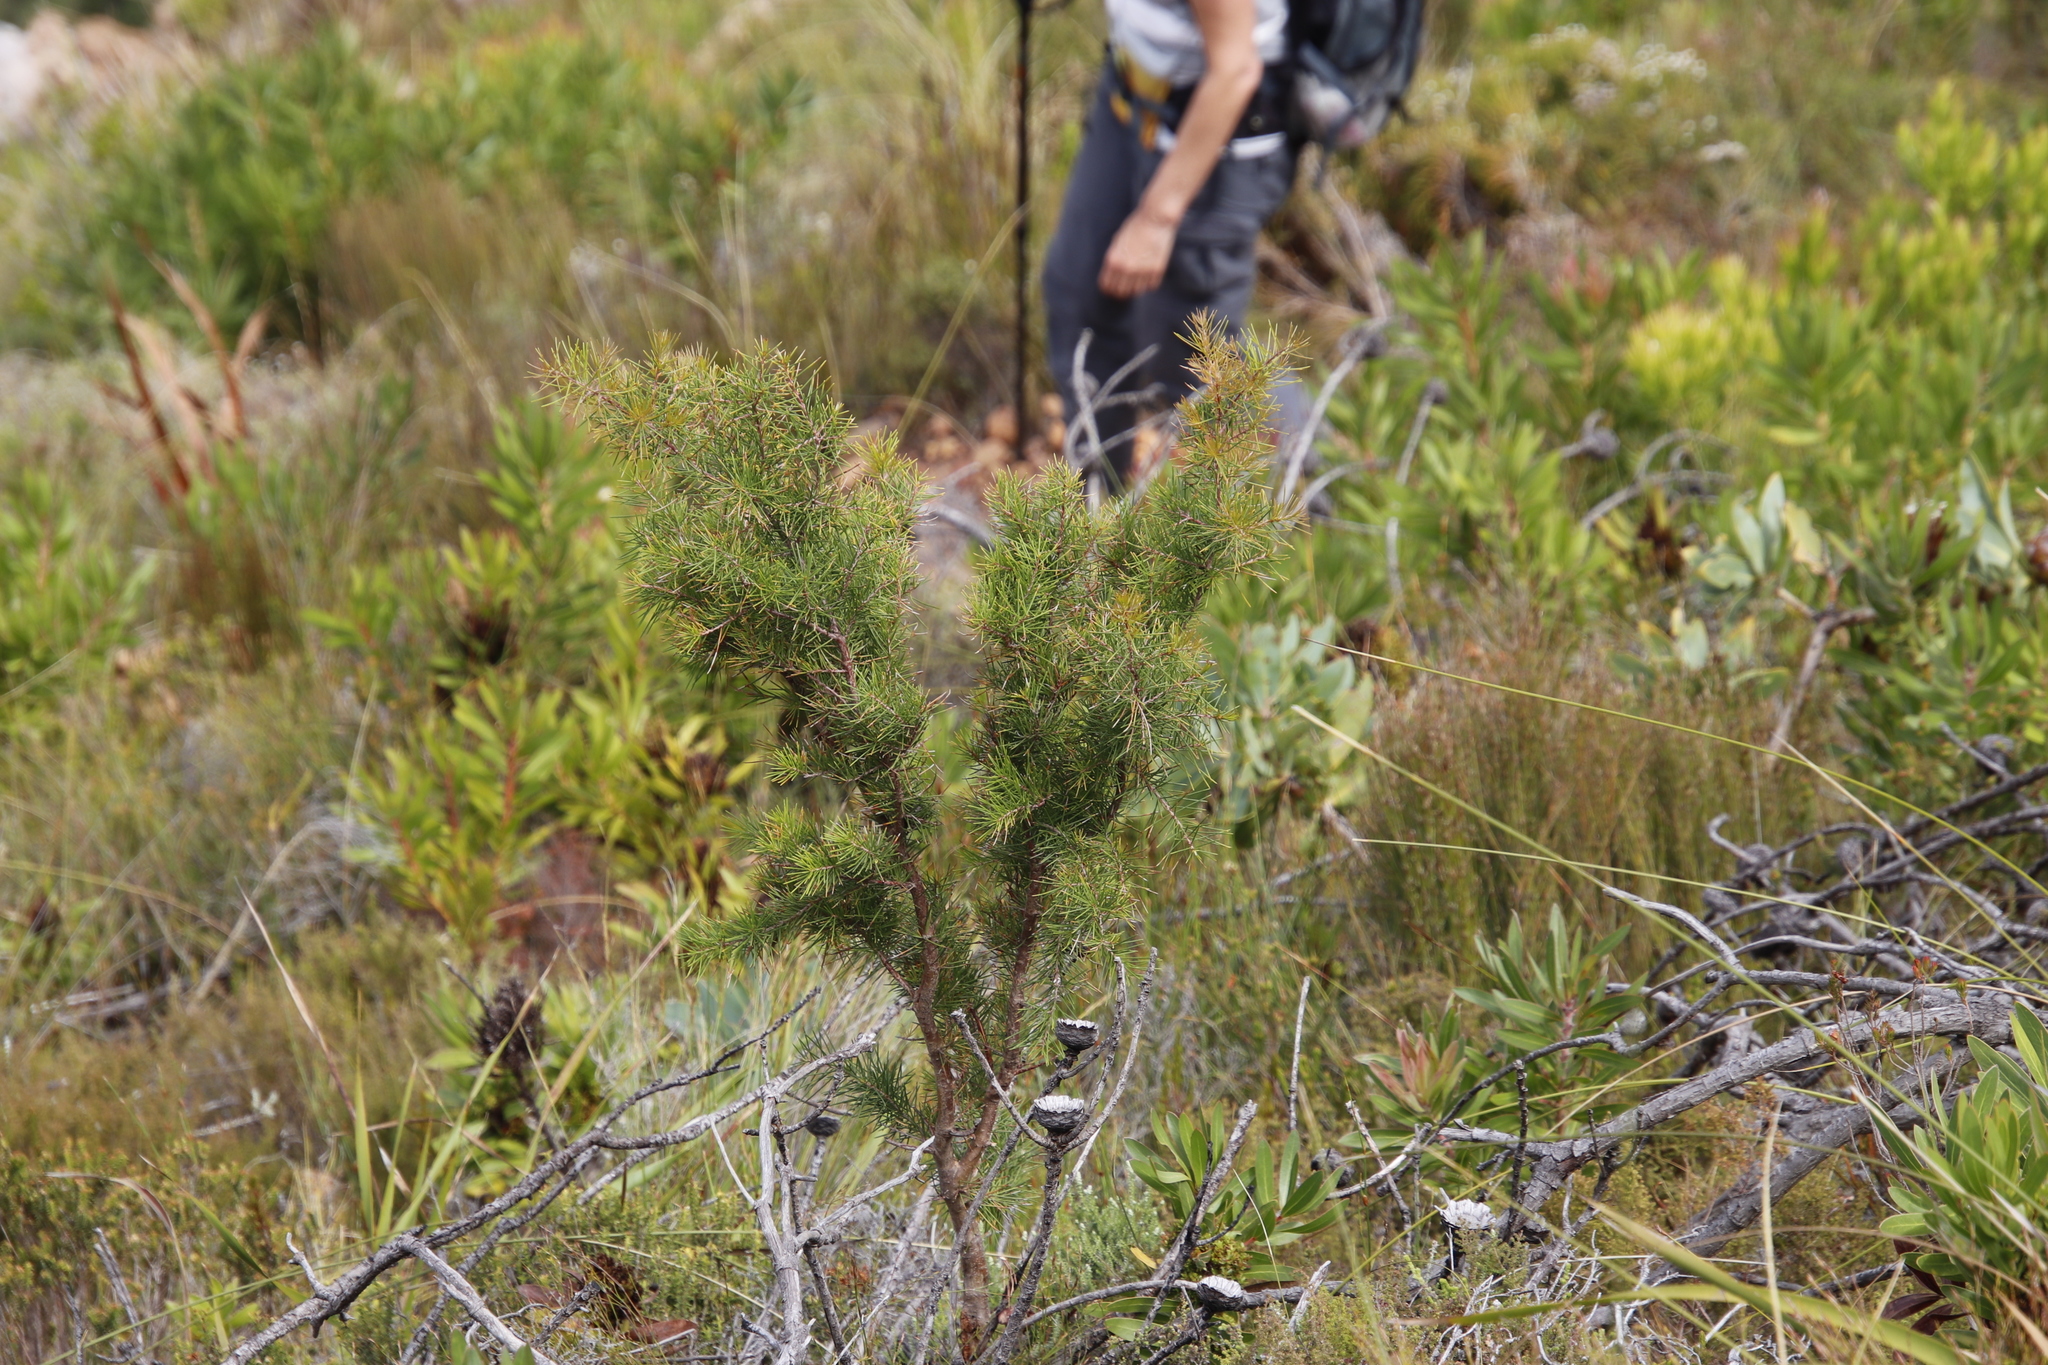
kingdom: Plantae
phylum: Tracheophyta
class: Magnoliopsida
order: Proteales
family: Proteaceae
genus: Hakea
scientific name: Hakea sericea
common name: Needle bush
